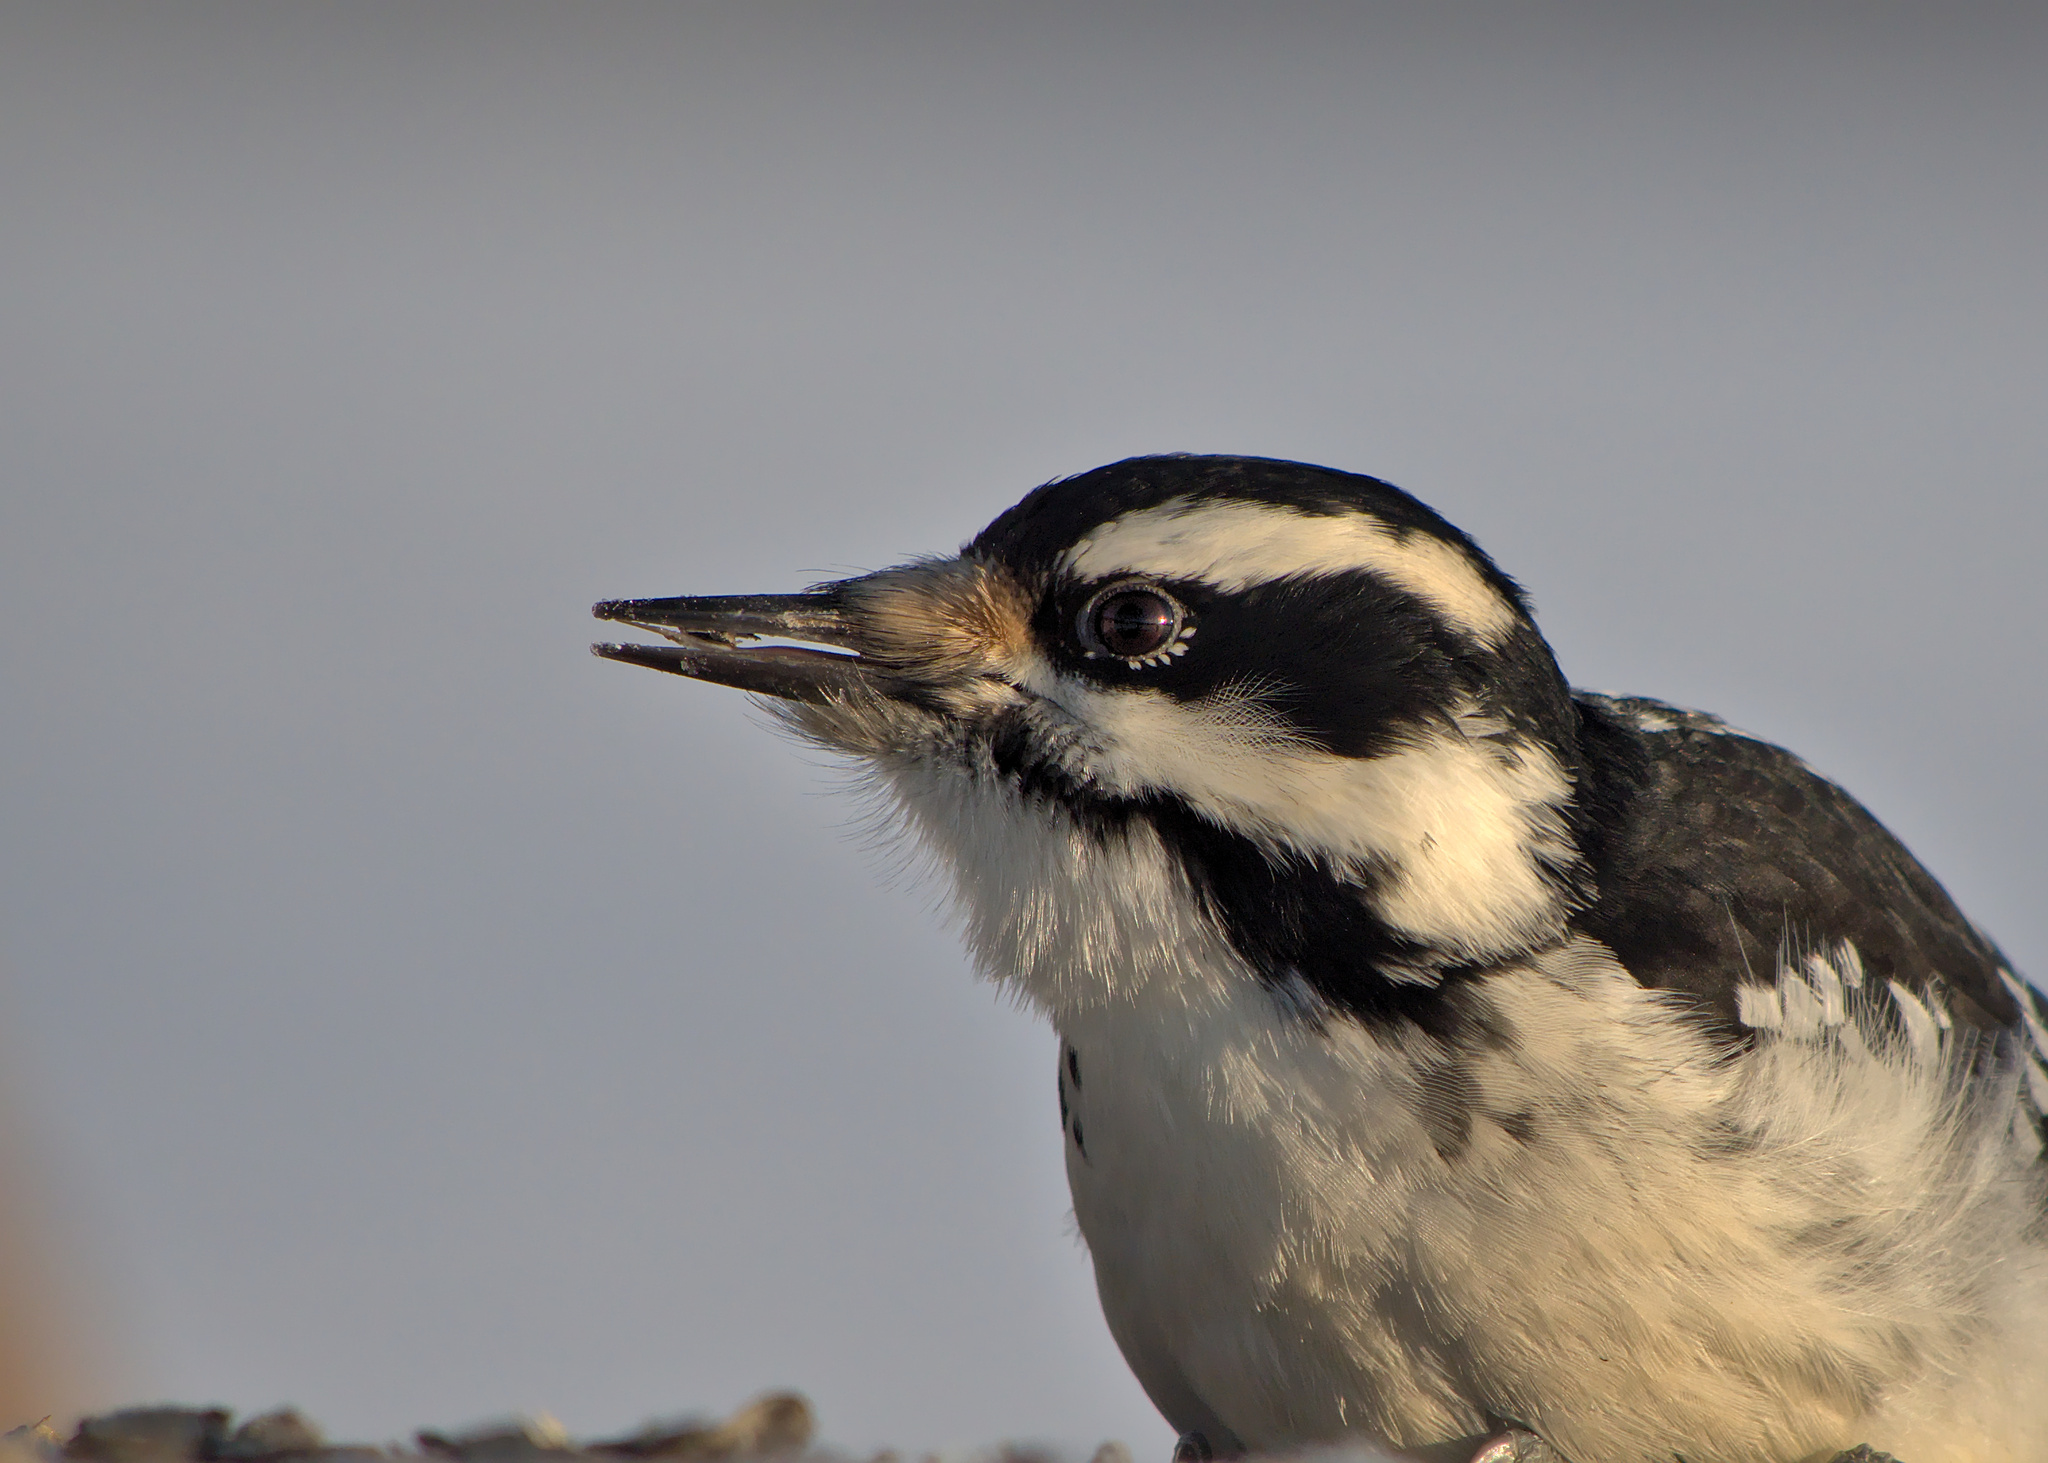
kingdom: Animalia
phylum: Chordata
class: Aves
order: Piciformes
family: Picidae
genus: Leuconotopicus
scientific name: Leuconotopicus villosus
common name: Hairy woodpecker
